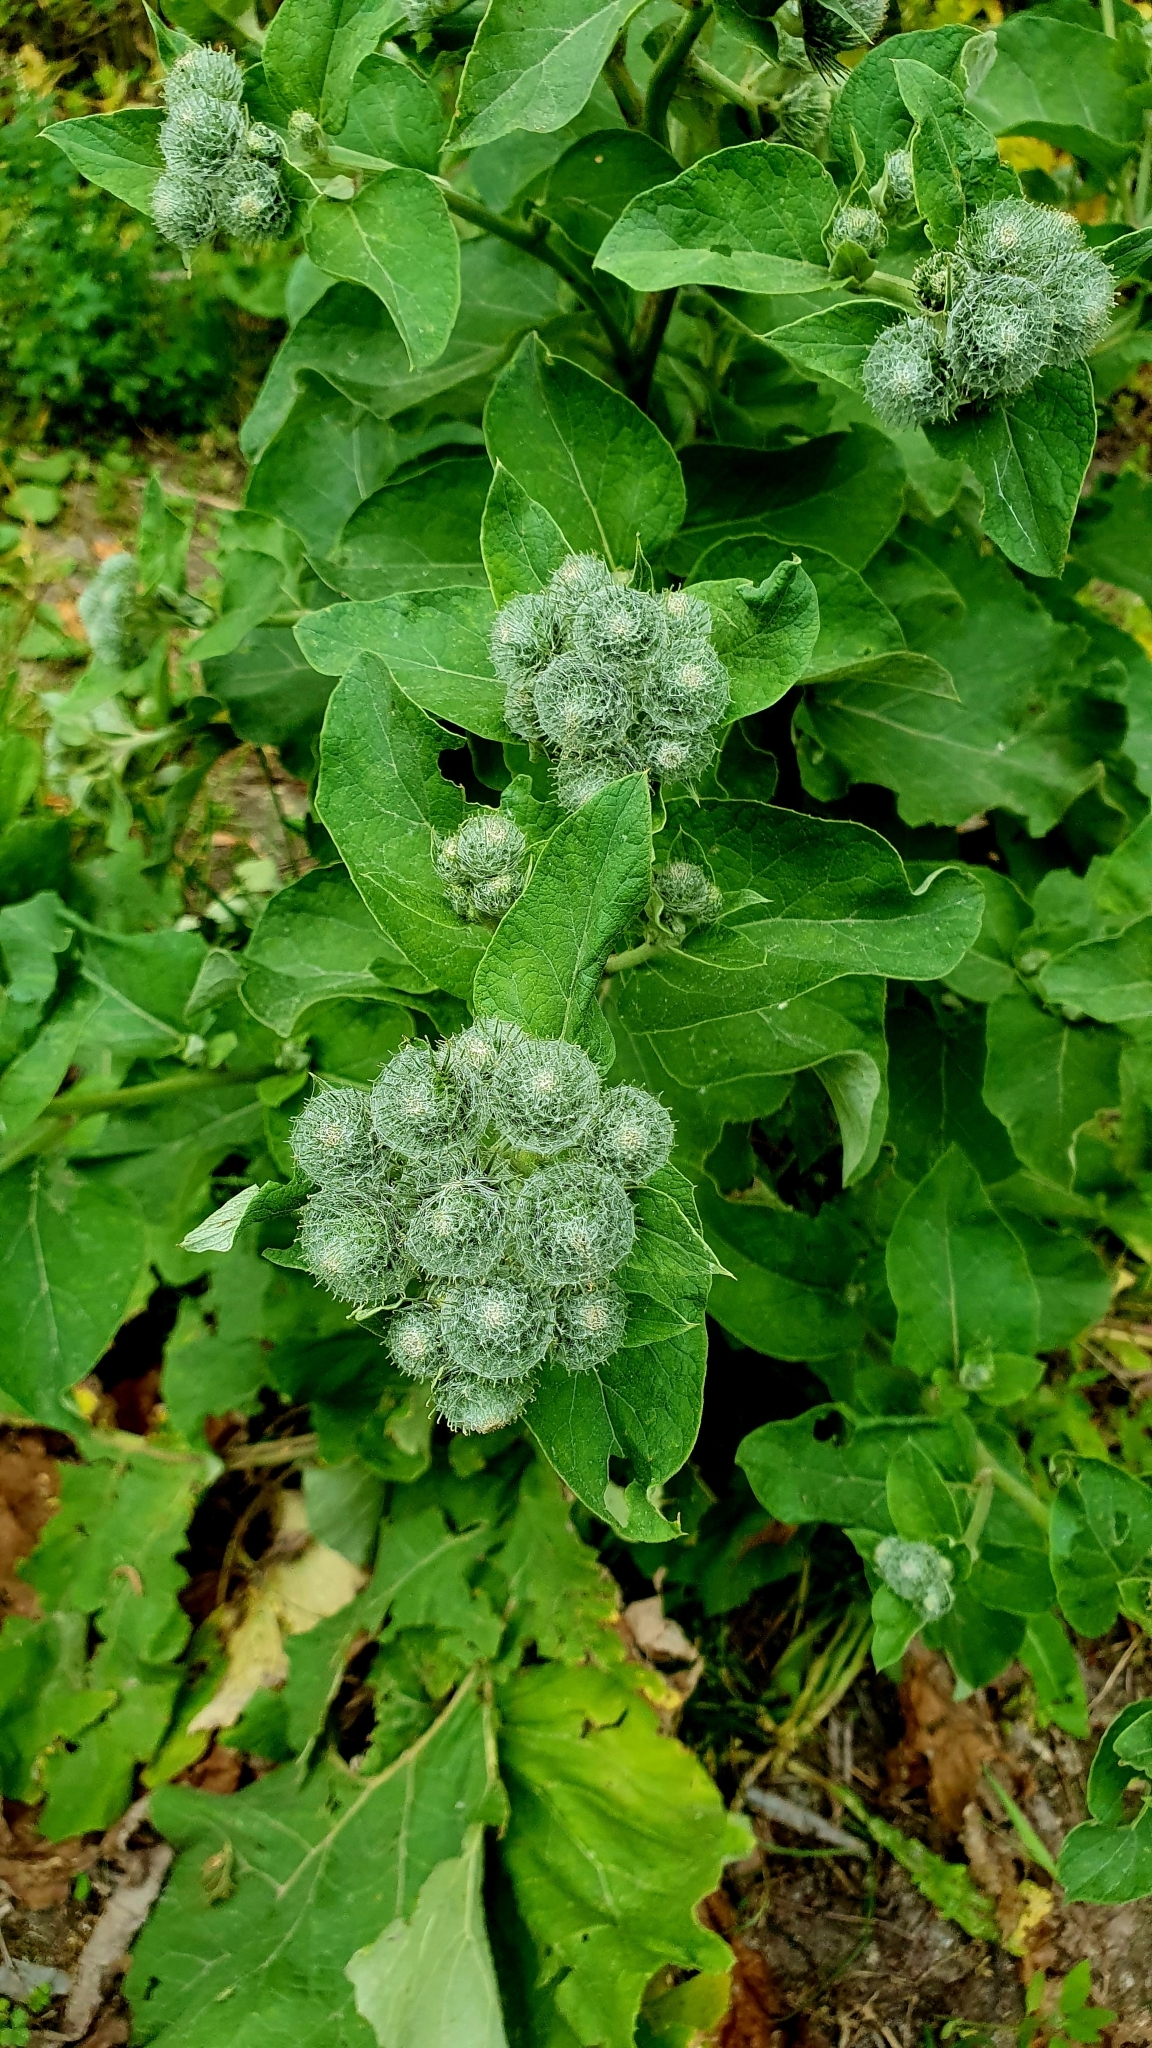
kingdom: Plantae
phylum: Tracheophyta
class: Magnoliopsida
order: Asterales
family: Asteraceae
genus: Arctium
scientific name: Arctium tomentosum
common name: Woolly burdock
